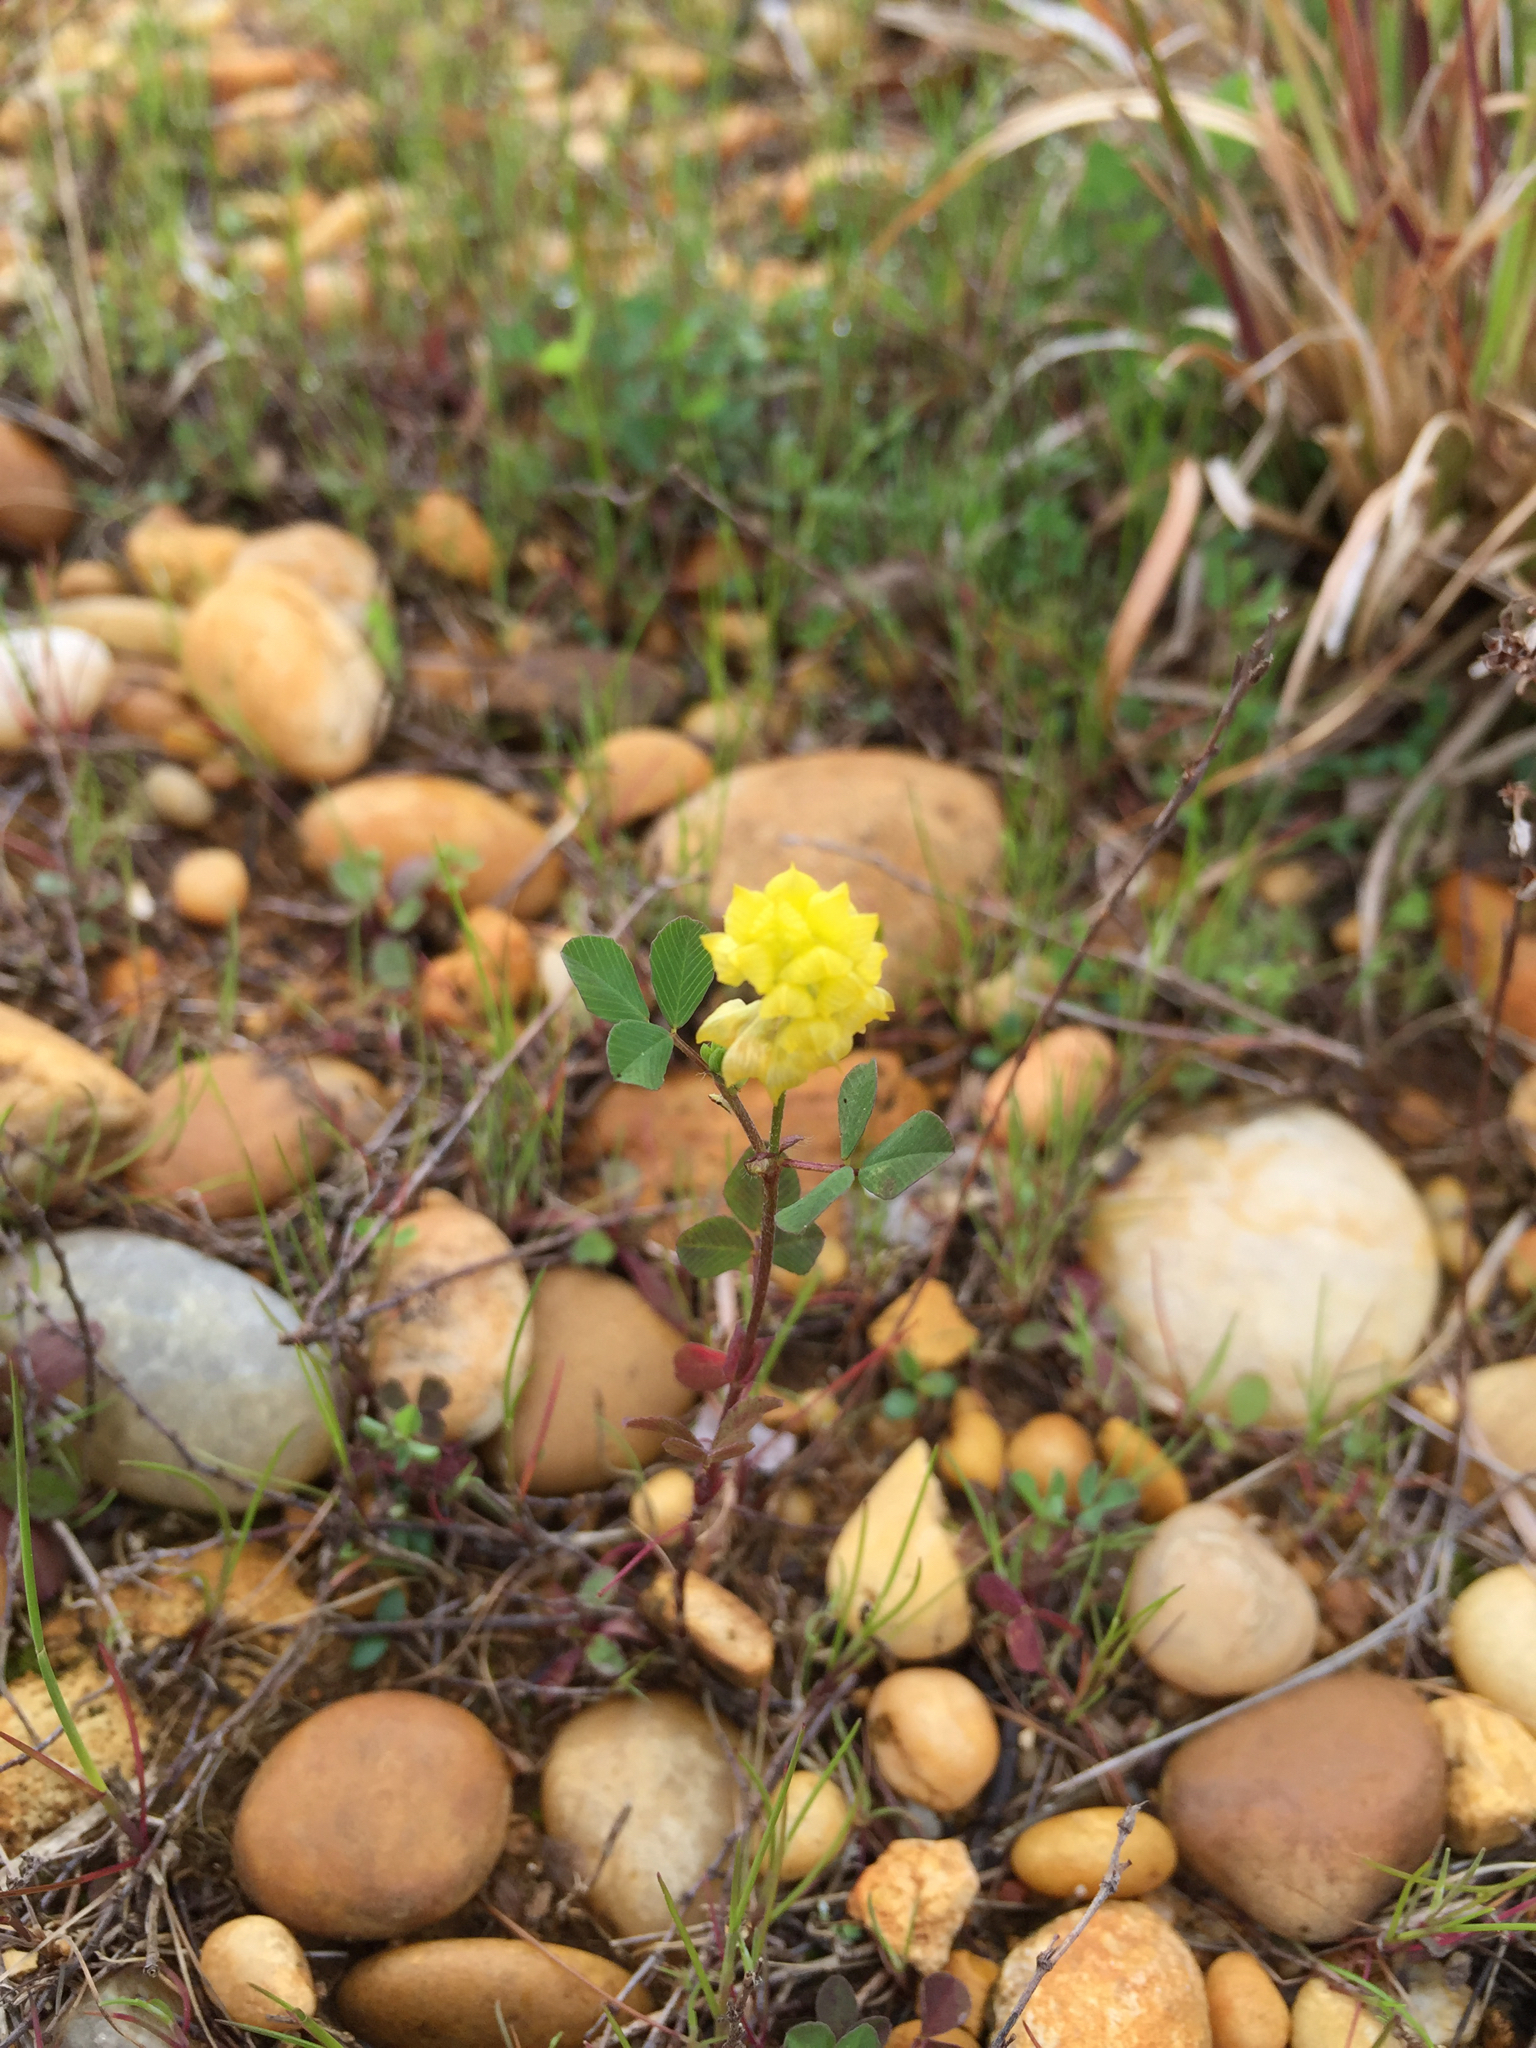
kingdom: Plantae
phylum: Tracheophyta
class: Magnoliopsida
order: Fabales
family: Fabaceae
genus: Trifolium
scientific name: Trifolium campestre
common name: Field clover
